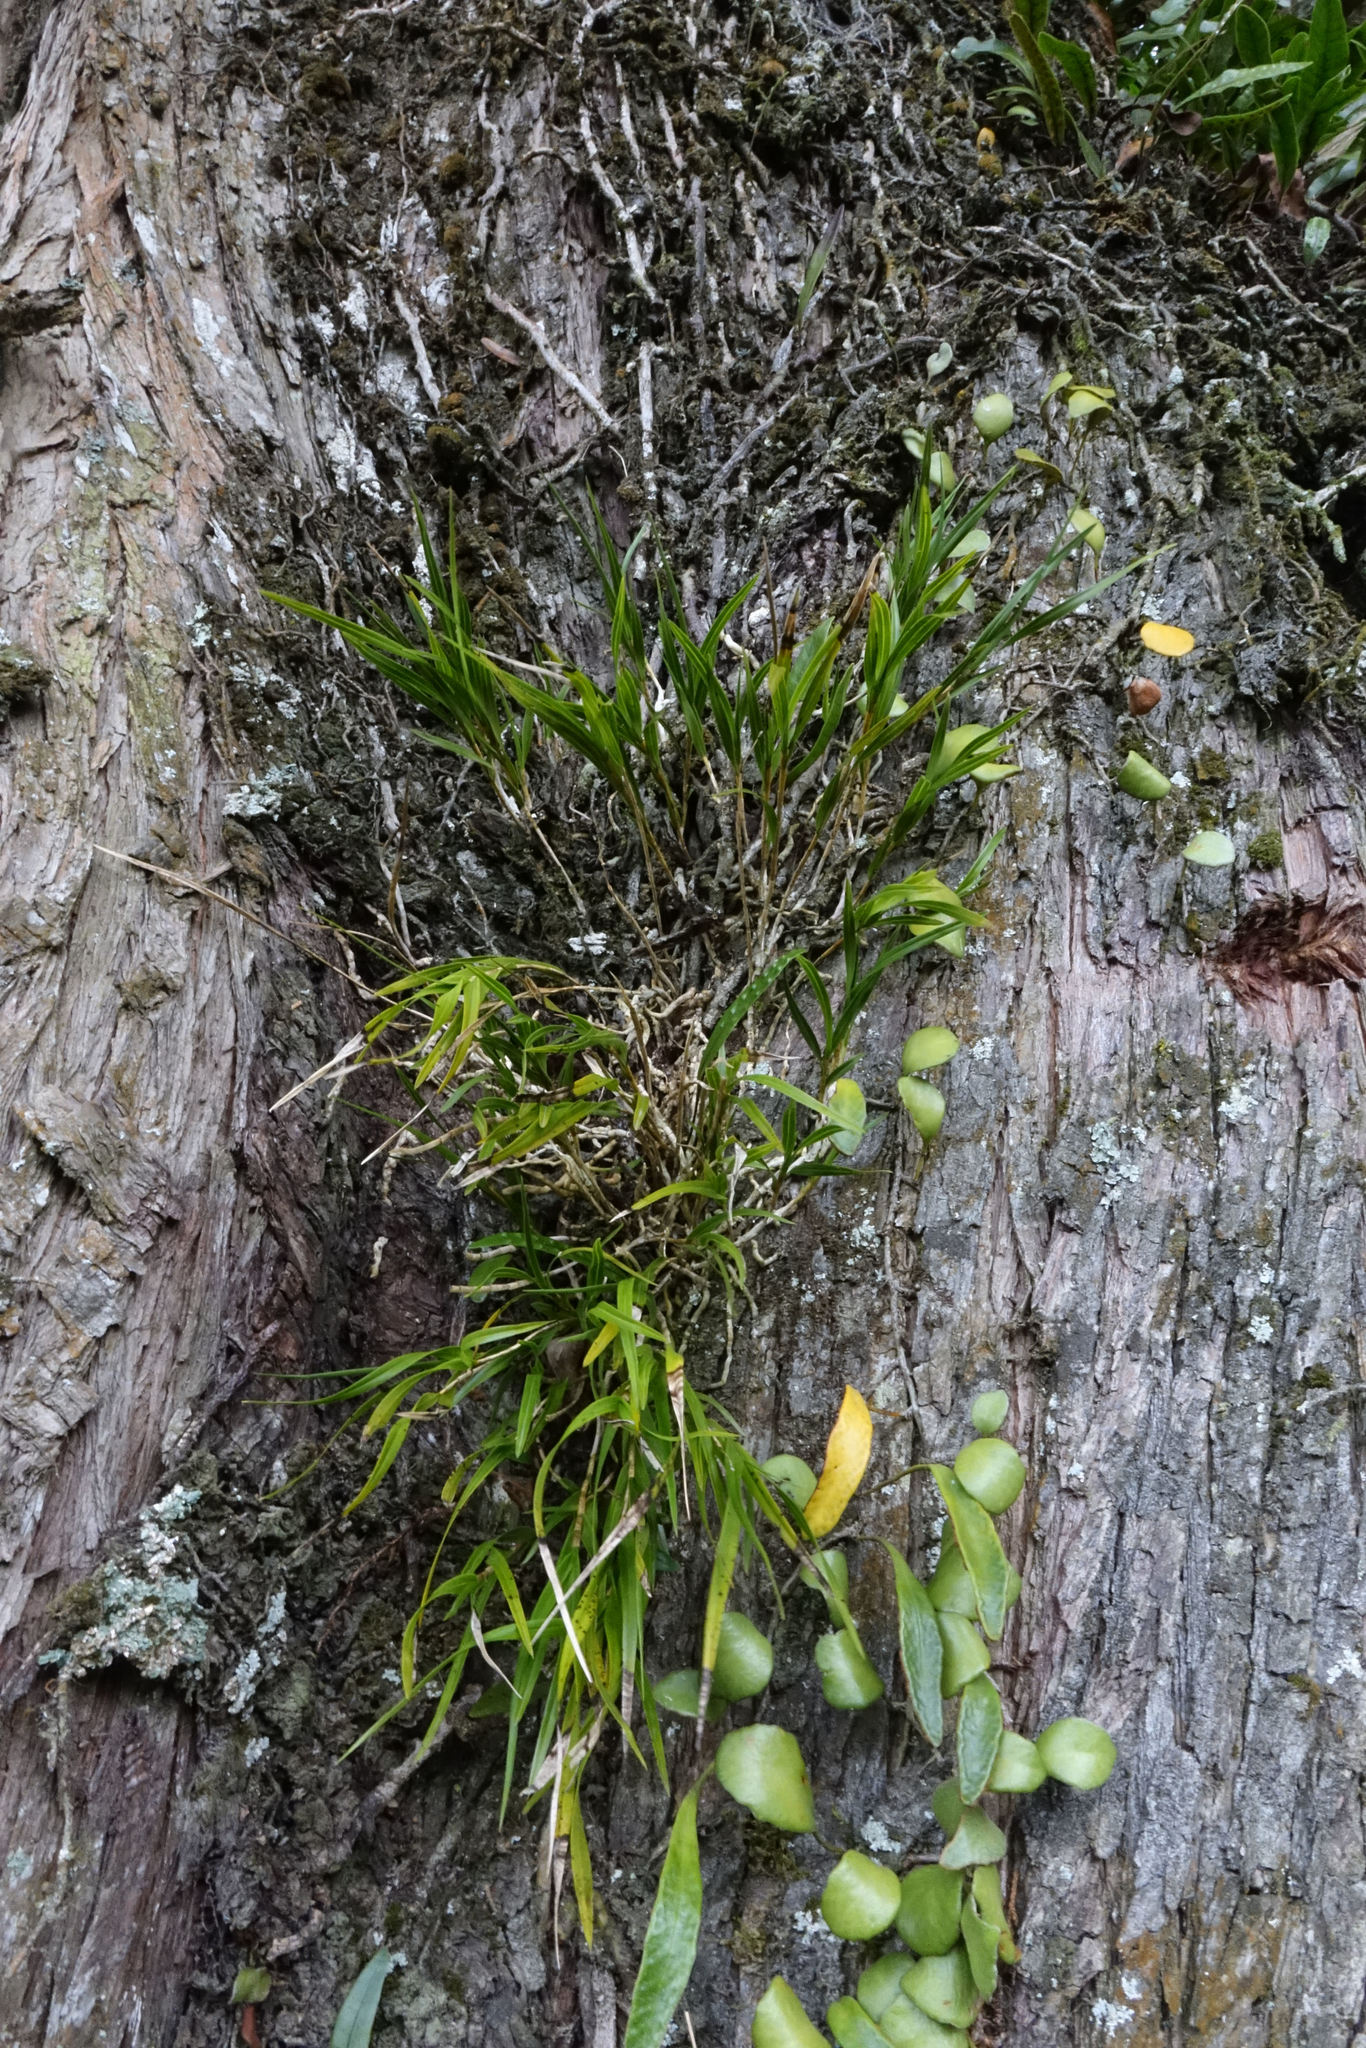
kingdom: Plantae
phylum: Tracheophyta
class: Liliopsida
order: Asparagales
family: Orchidaceae
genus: Earina
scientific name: Earina mucronata
